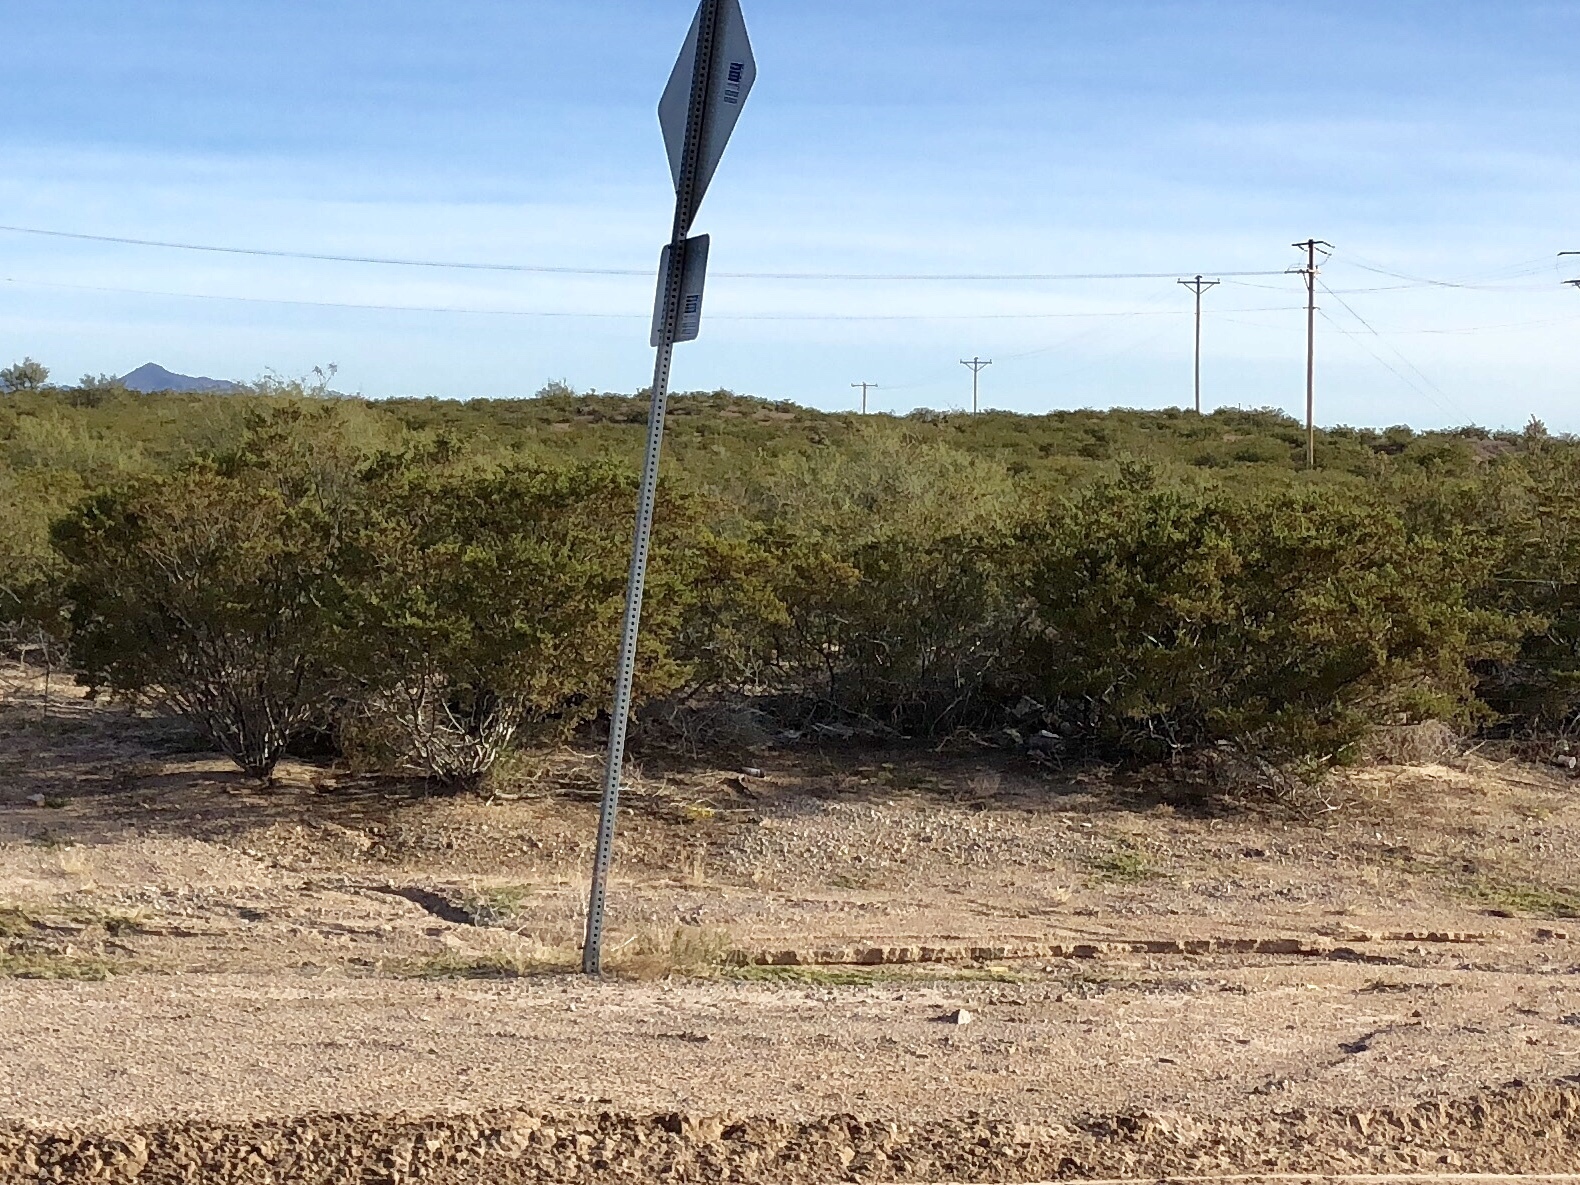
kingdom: Plantae
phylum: Tracheophyta
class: Magnoliopsida
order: Zygophyllales
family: Zygophyllaceae
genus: Larrea
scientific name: Larrea tridentata
